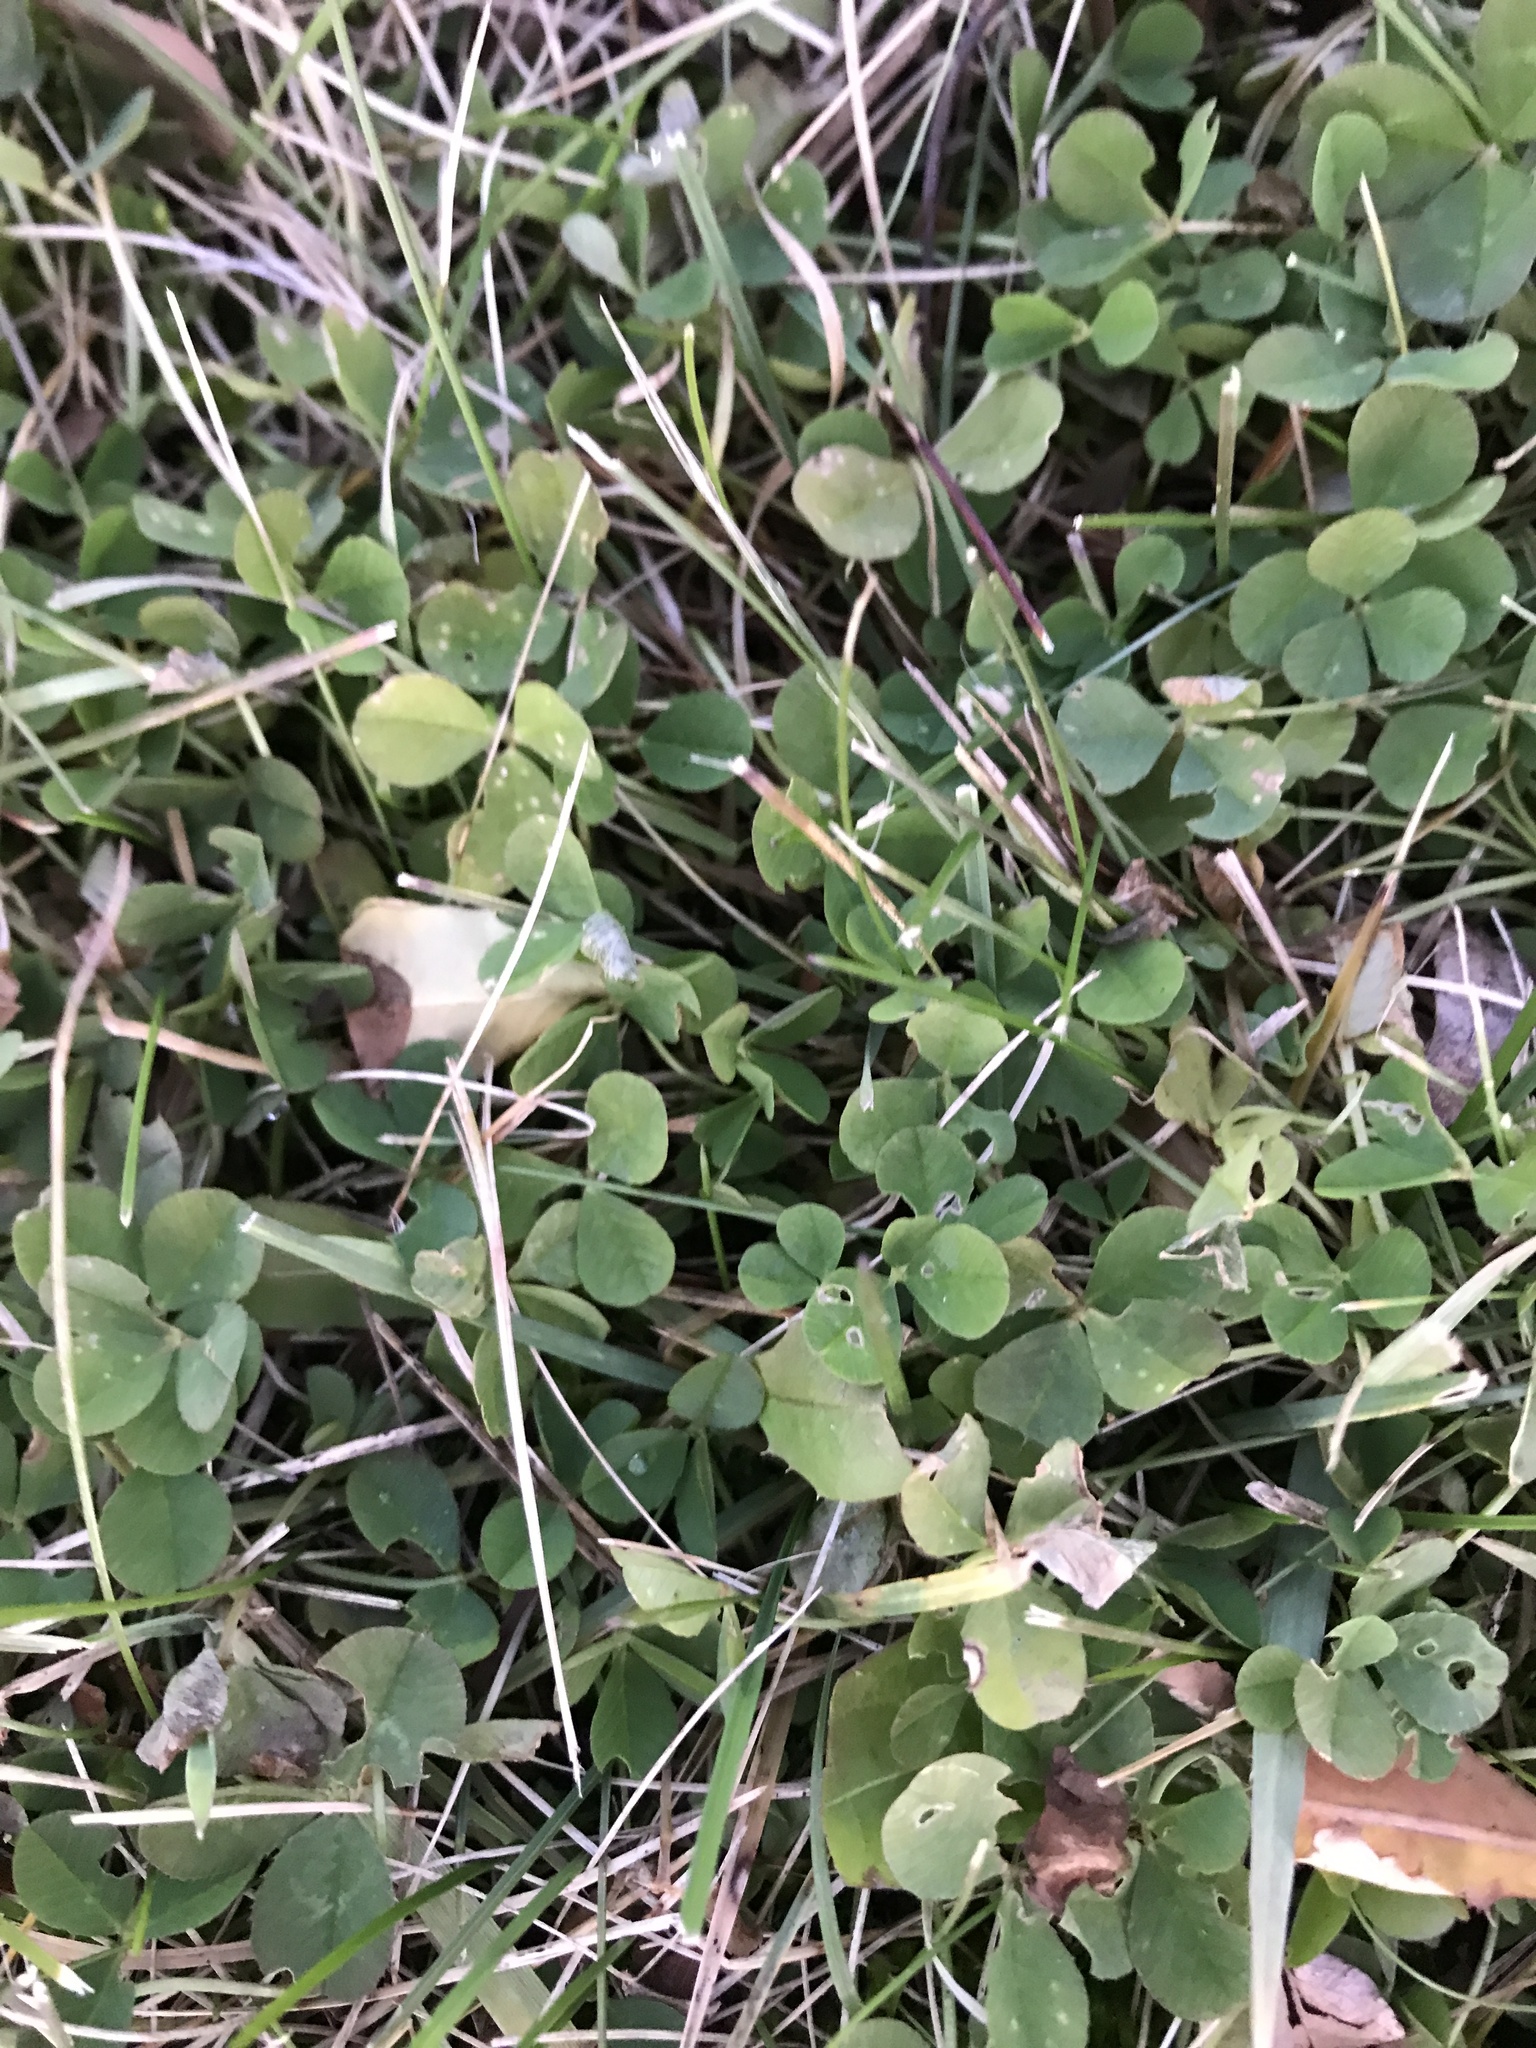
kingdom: Plantae
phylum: Tracheophyta
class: Magnoliopsida
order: Fabales
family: Fabaceae
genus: Trifolium
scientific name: Trifolium repens
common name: White clover
